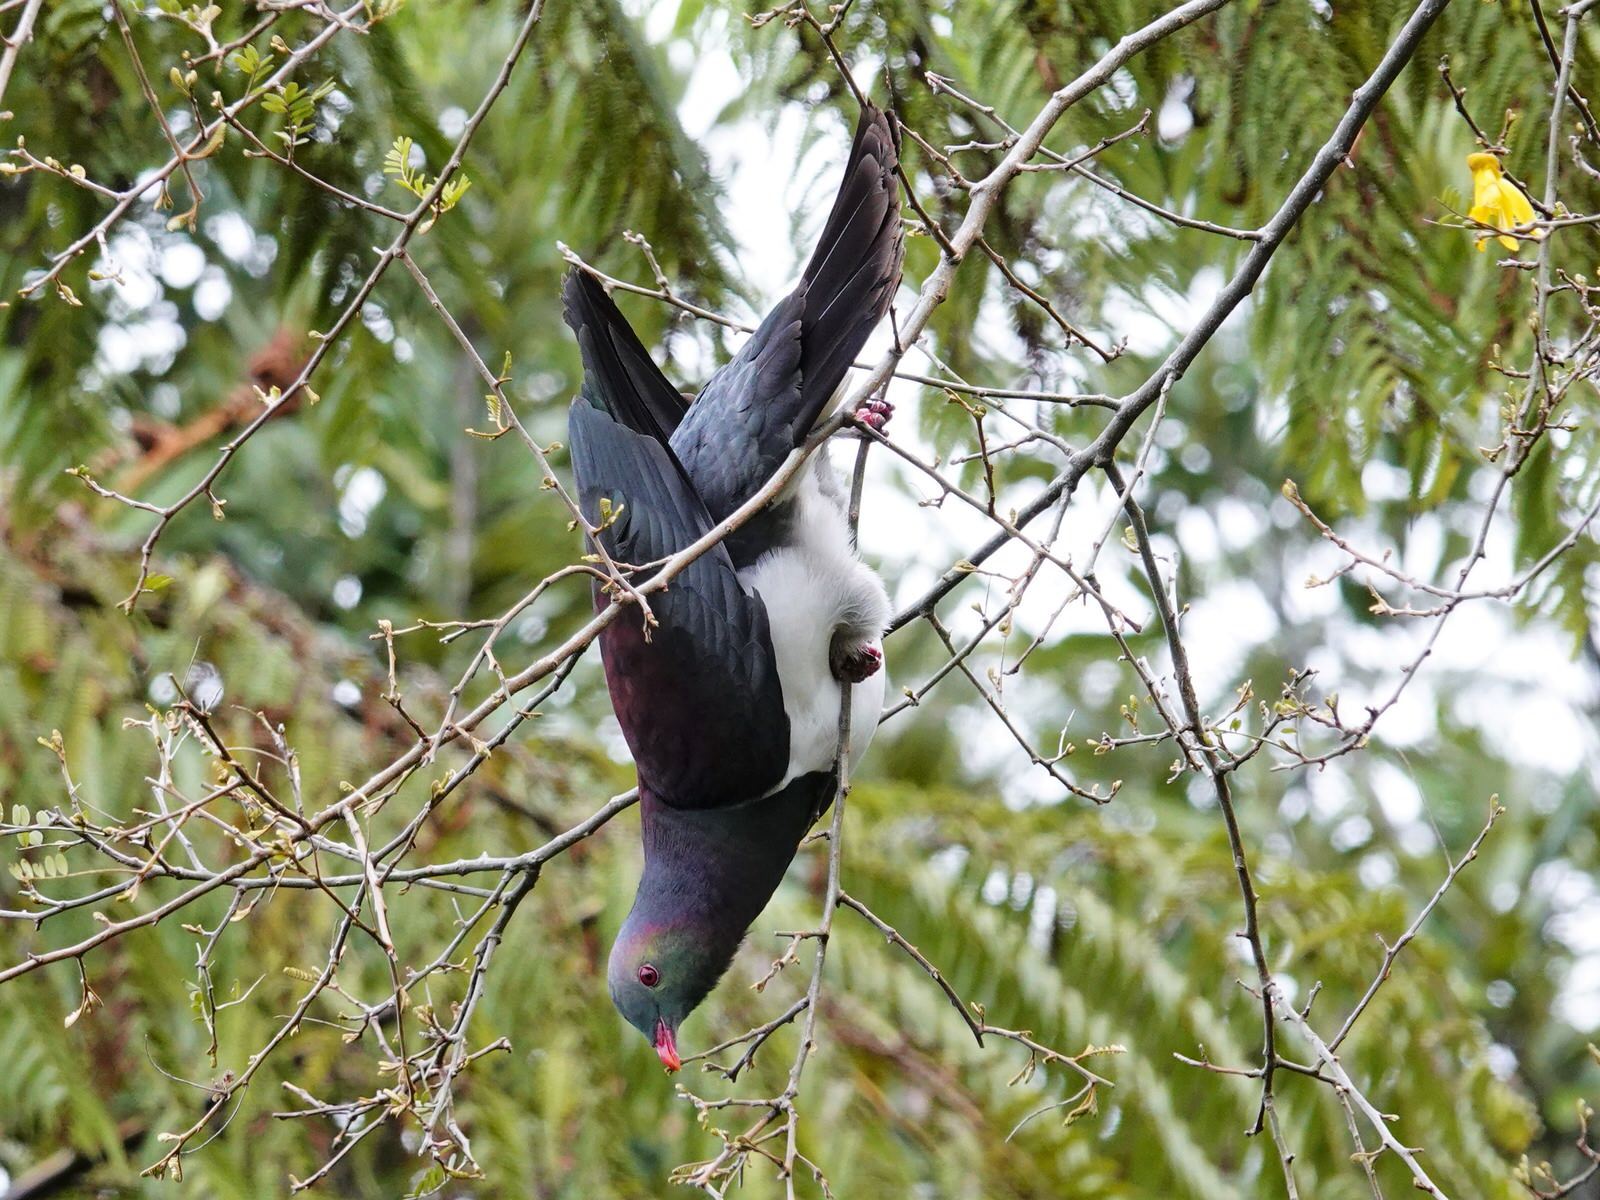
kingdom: Animalia
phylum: Chordata
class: Aves
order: Columbiformes
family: Columbidae
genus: Hemiphaga
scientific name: Hemiphaga novaeseelandiae
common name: New zealand pigeon
